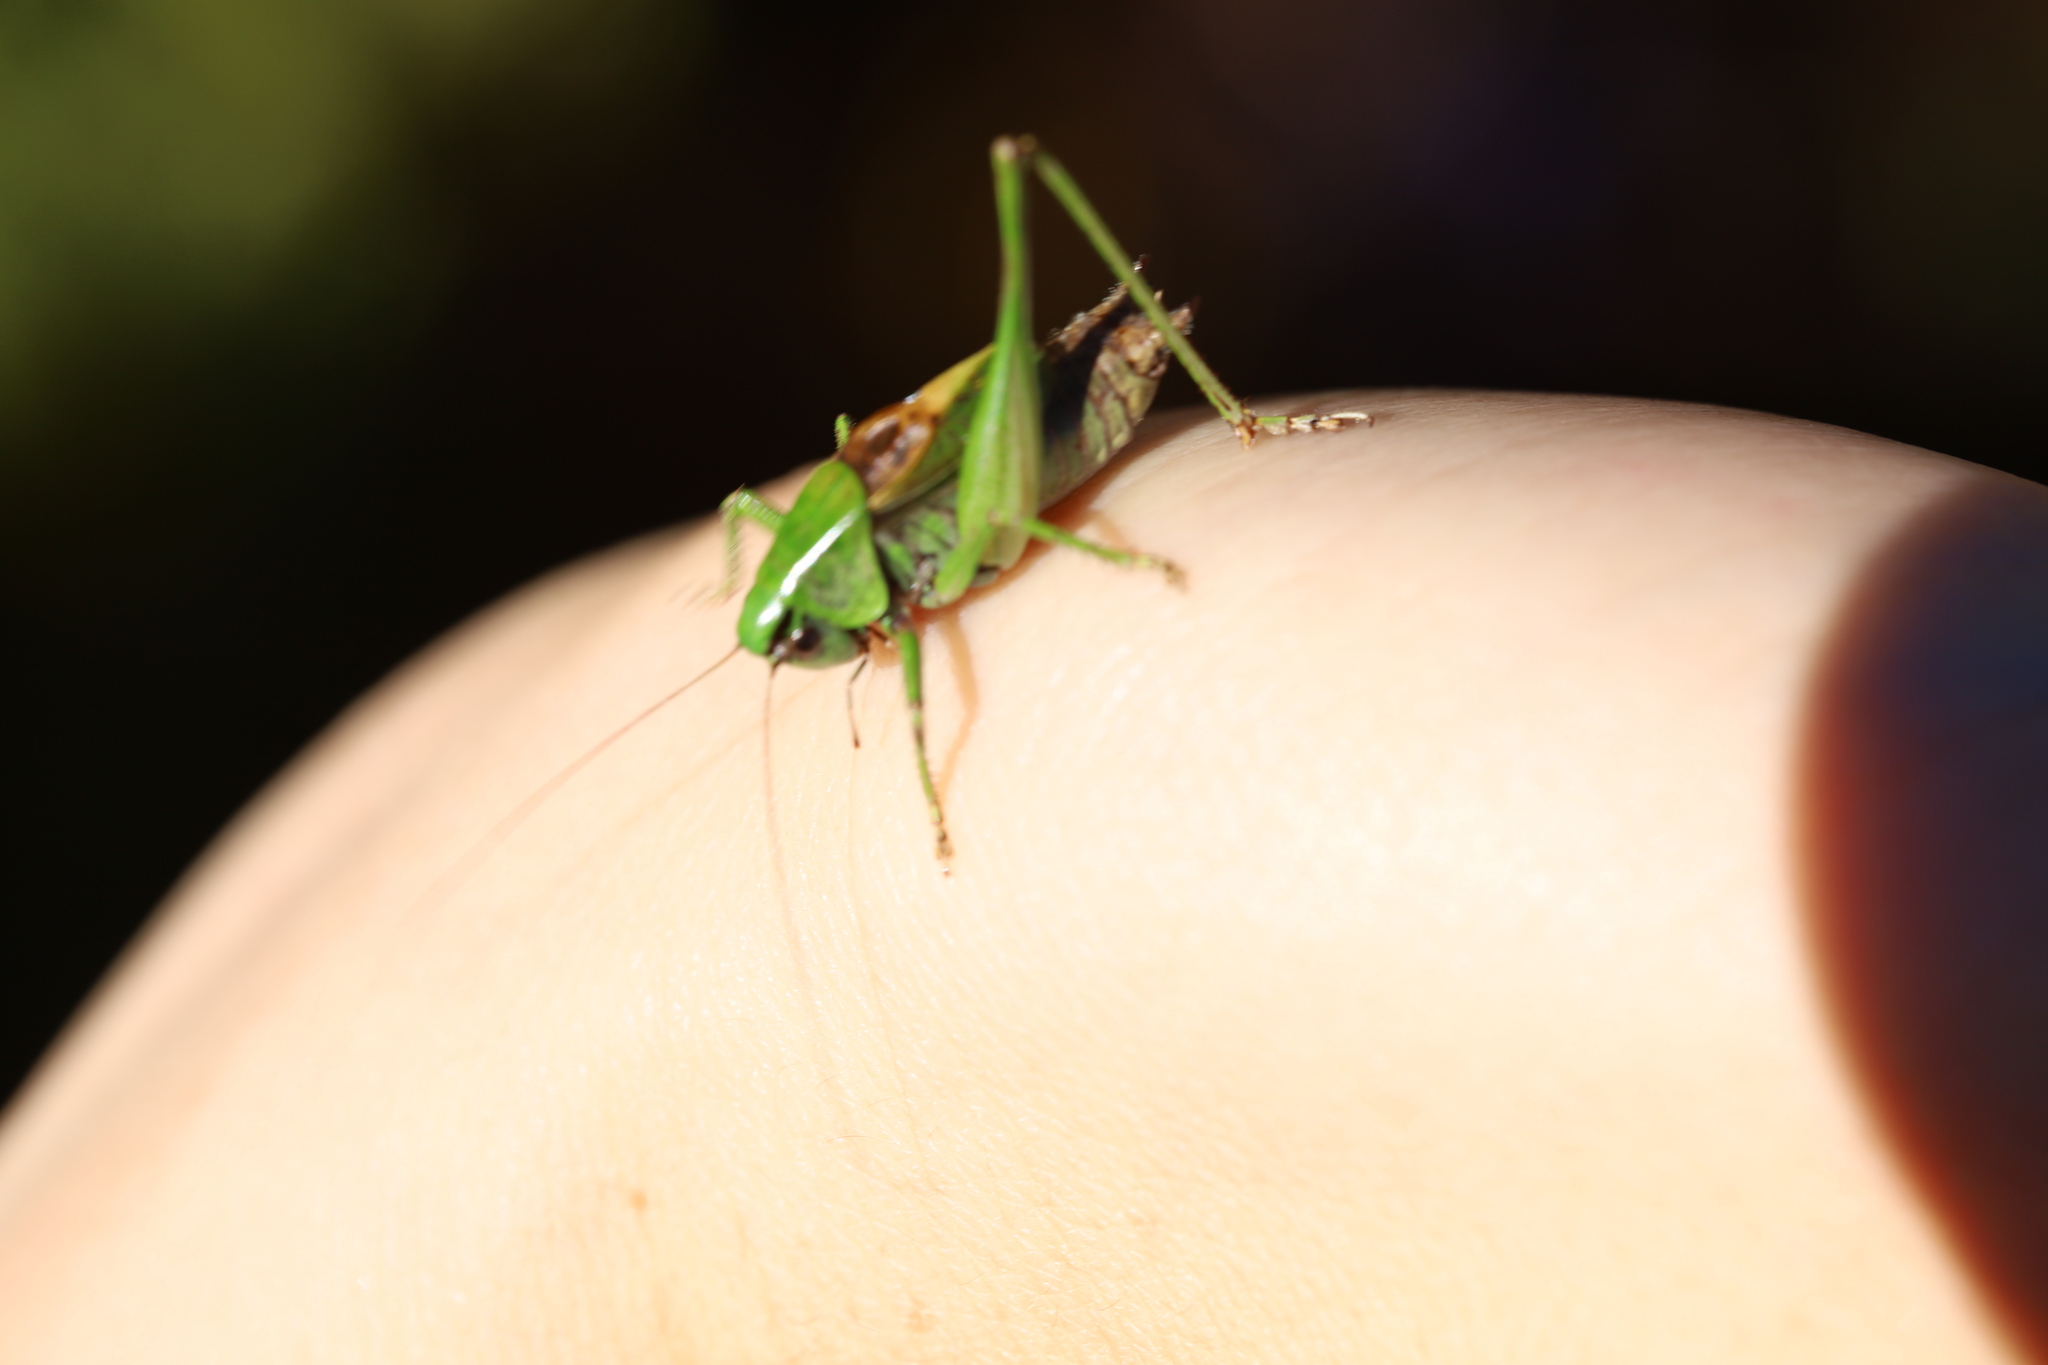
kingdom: Animalia
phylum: Arthropoda
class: Insecta
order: Orthoptera
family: Tettigoniidae
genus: Metrioptera
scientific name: Metrioptera buyssoni
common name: Pyrenean meadow bush-cricket
